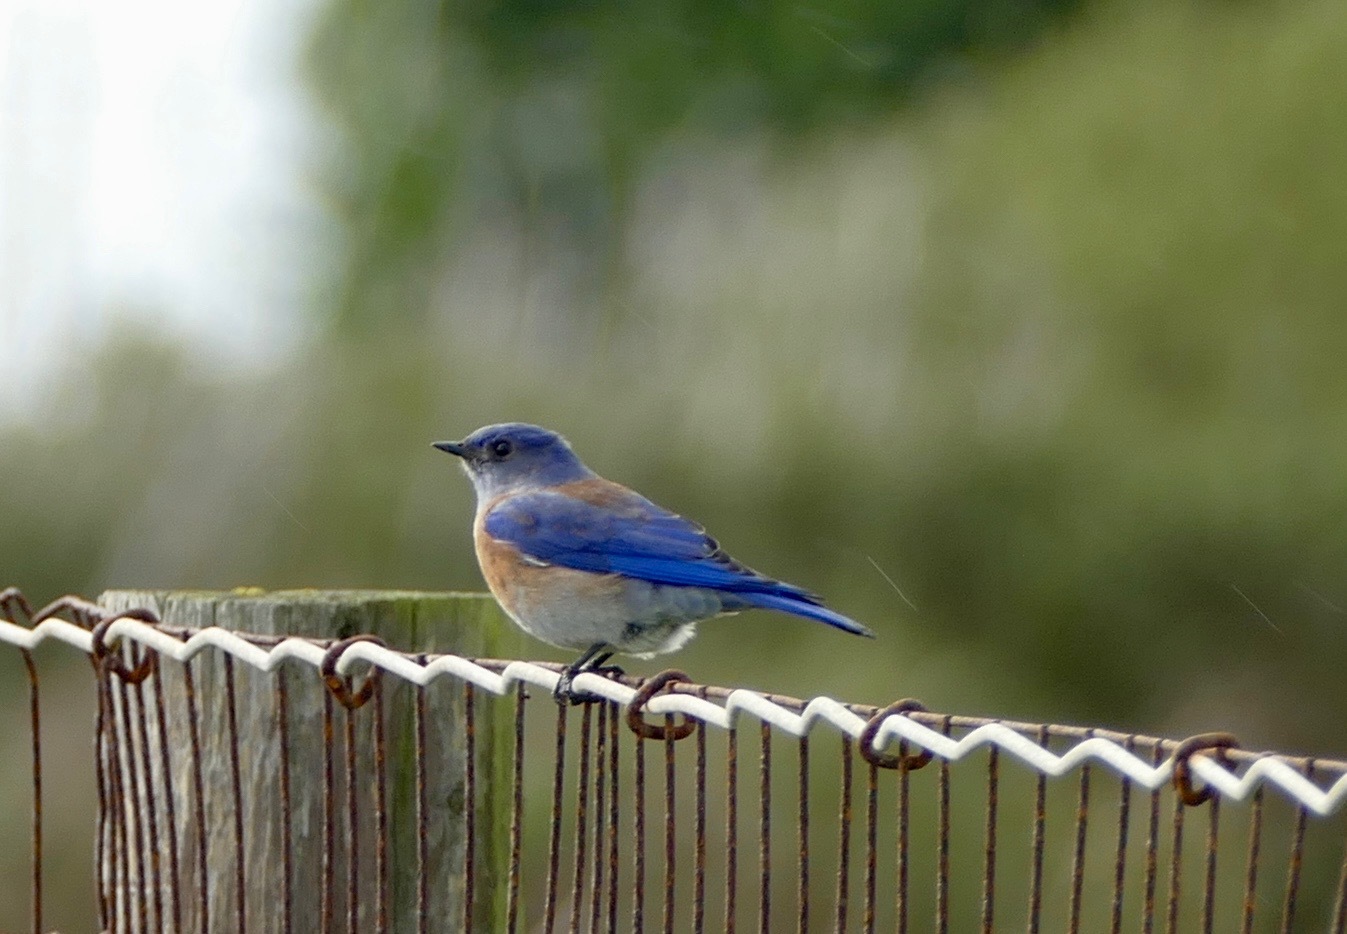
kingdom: Animalia
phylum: Chordata
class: Aves
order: Passeriformes
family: Turdidae
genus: Sialia
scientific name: Sialia mexicana
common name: Western bluebird
